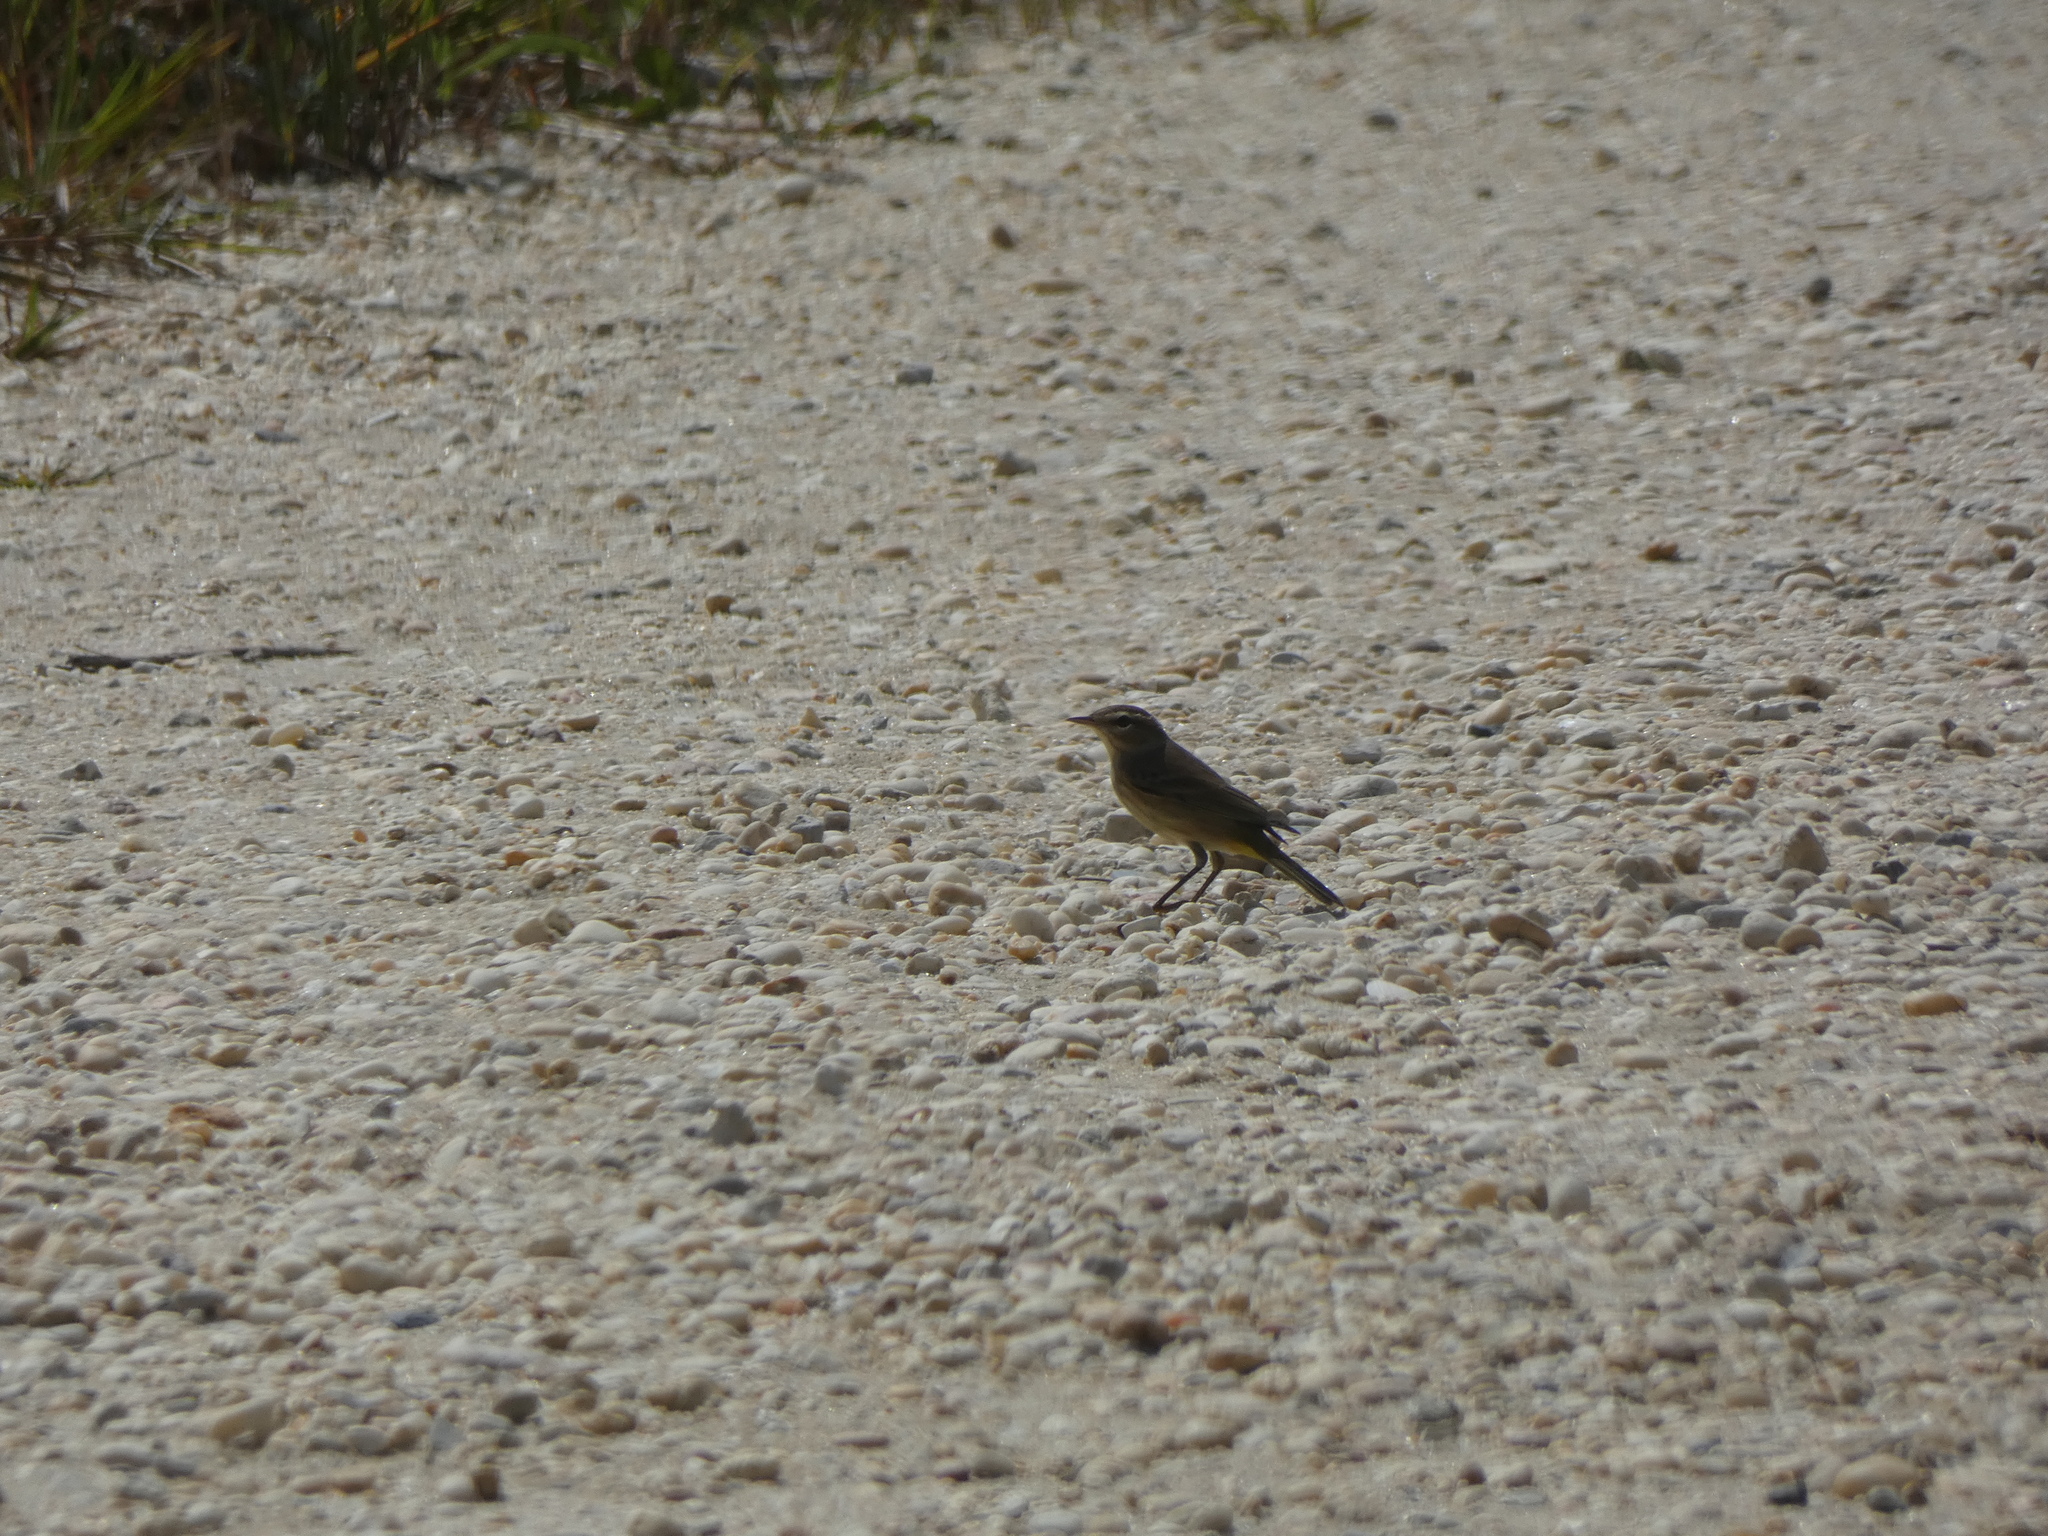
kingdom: Animalia
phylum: Chordata
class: Aves
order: Passeriformes
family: Parulidae
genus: Setophaga
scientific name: Setophaga palmarum
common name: Palm warbler
